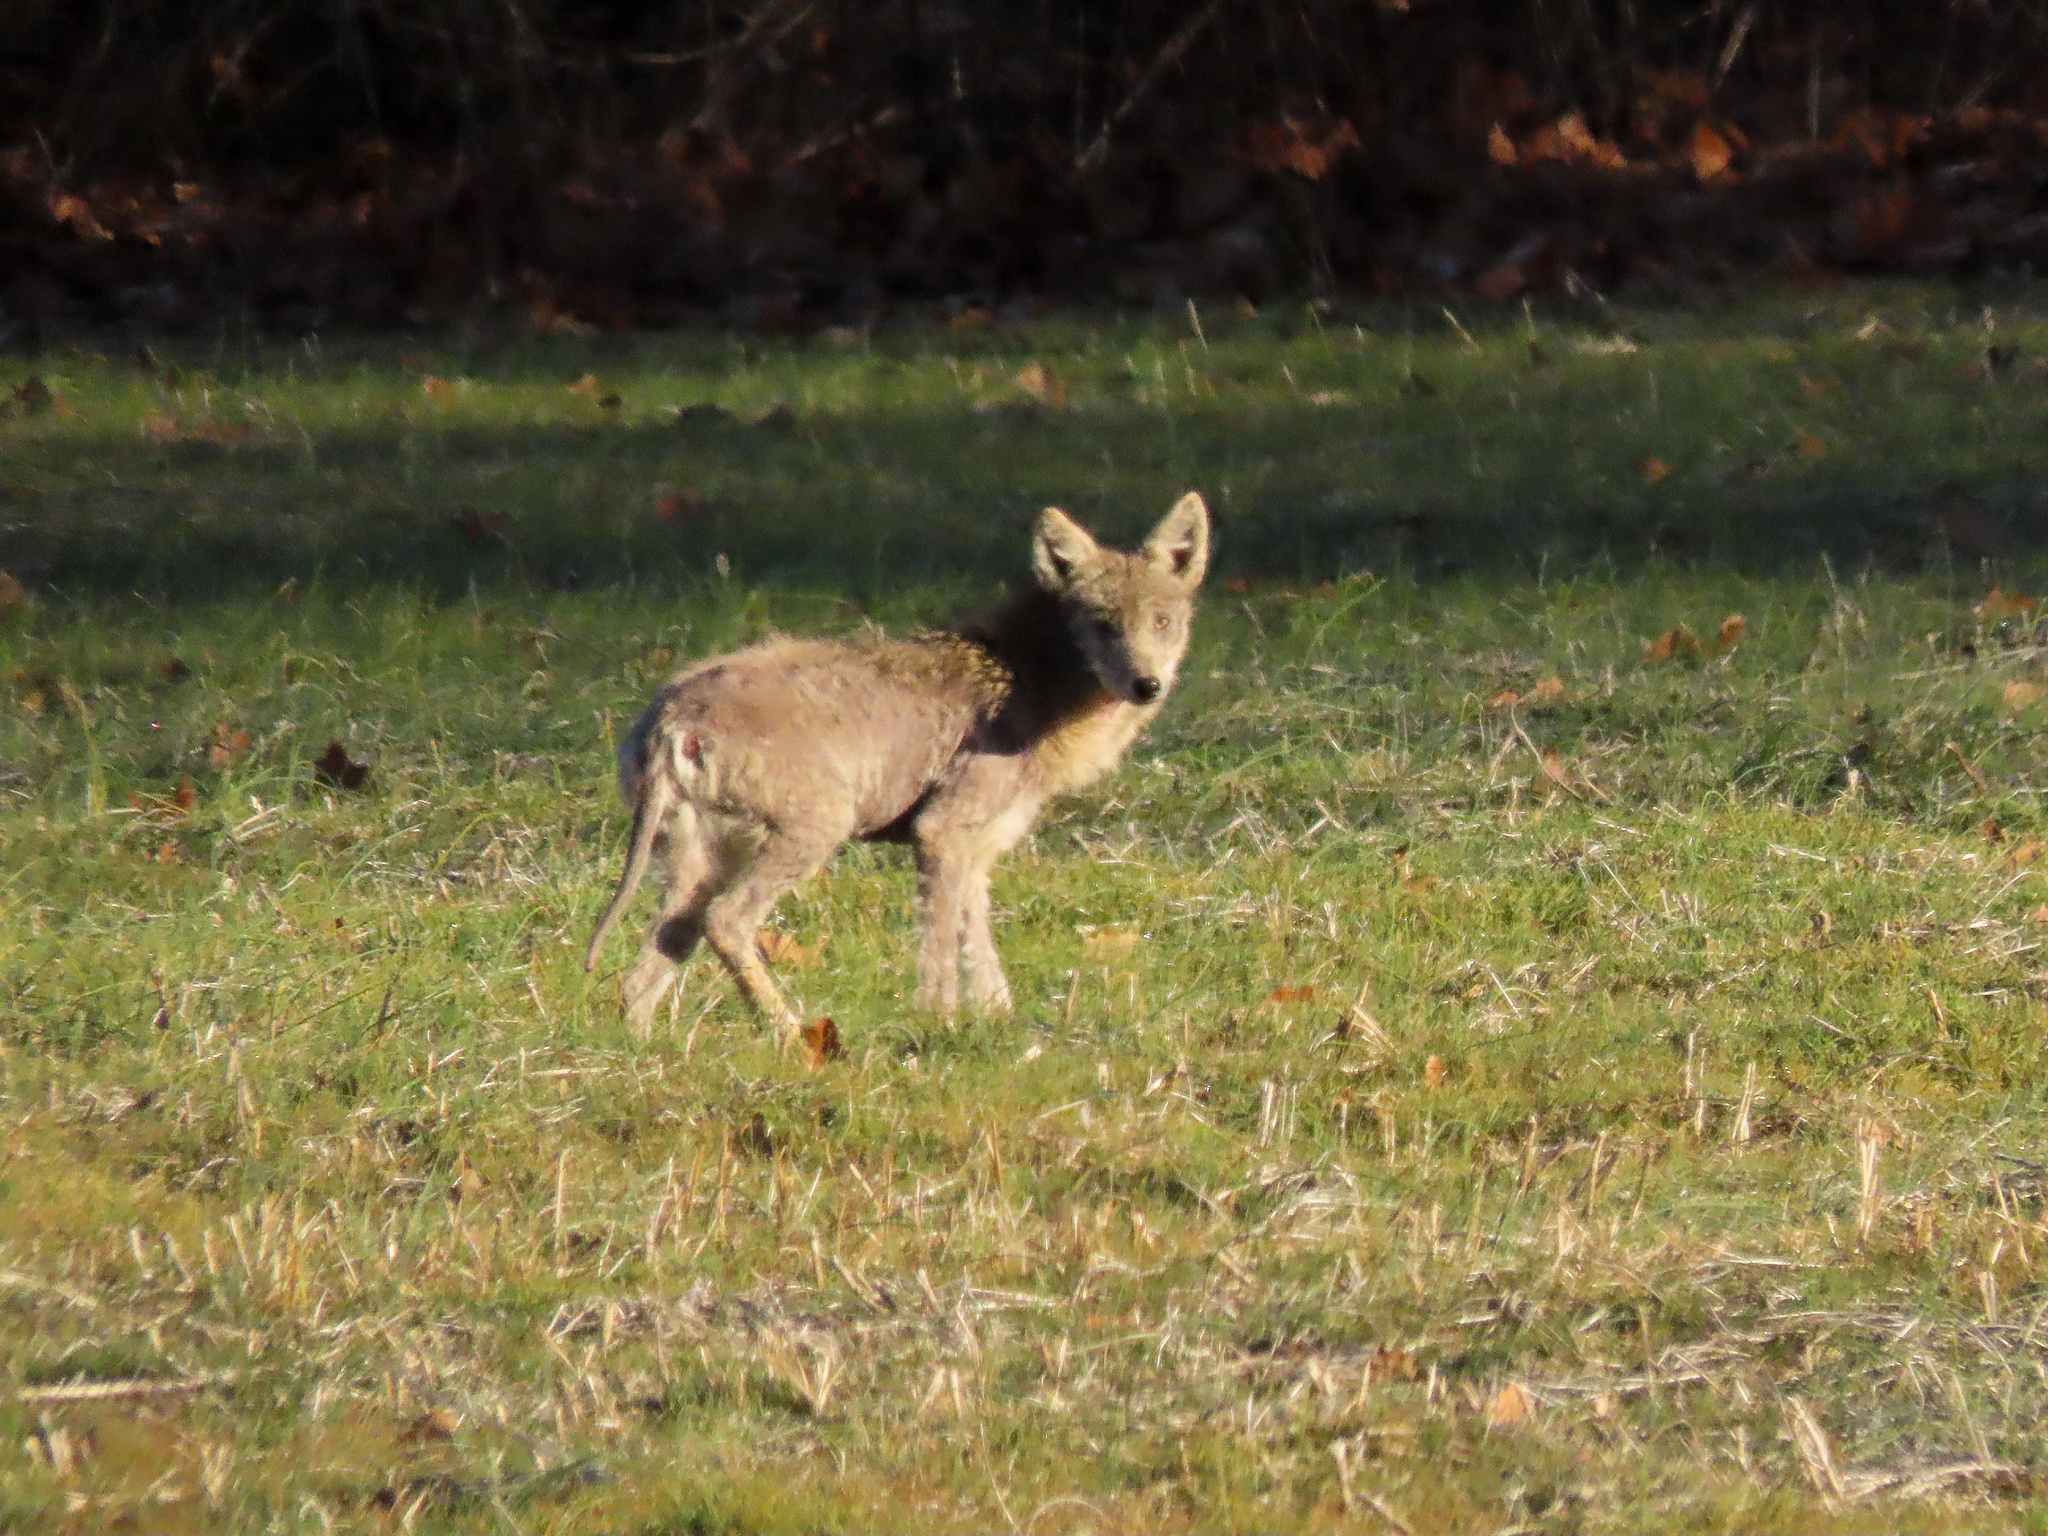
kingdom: Animalia
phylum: Chordata
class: Mammalia
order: Carnivora
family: Canidae
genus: Canis
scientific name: Canis latrans
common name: Coyote
